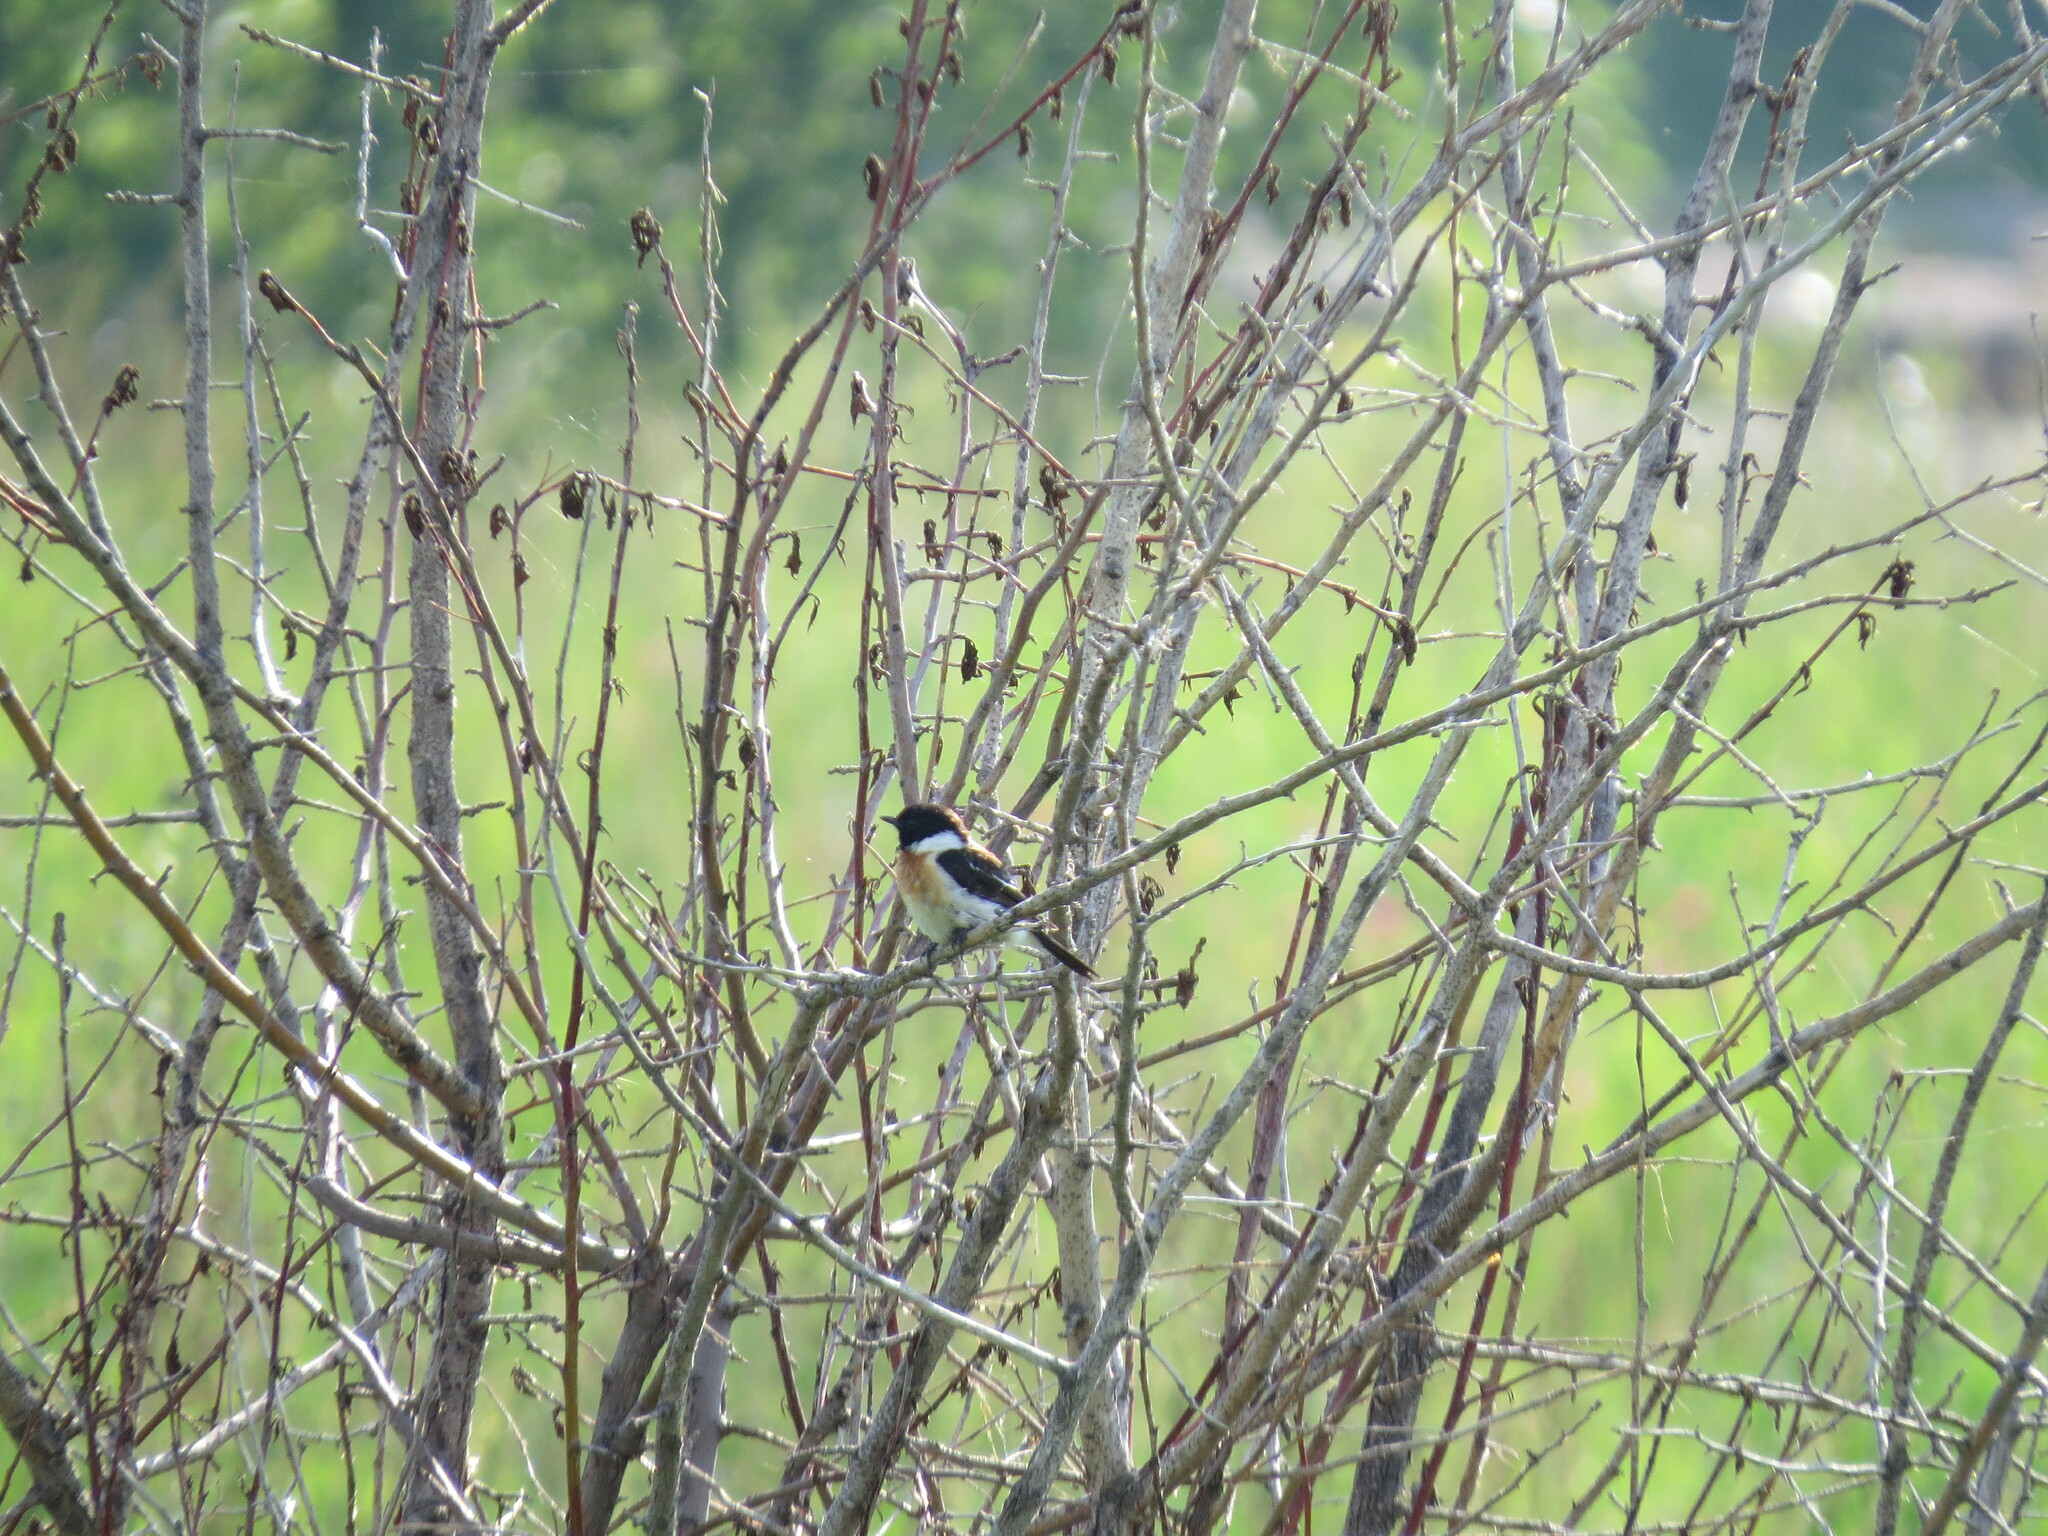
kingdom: Animalia
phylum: Chordata
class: Aves
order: Passeriformes
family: Muscicapidae
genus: Saxicola
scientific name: Saxicola maurus
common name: Siberian stonechat
